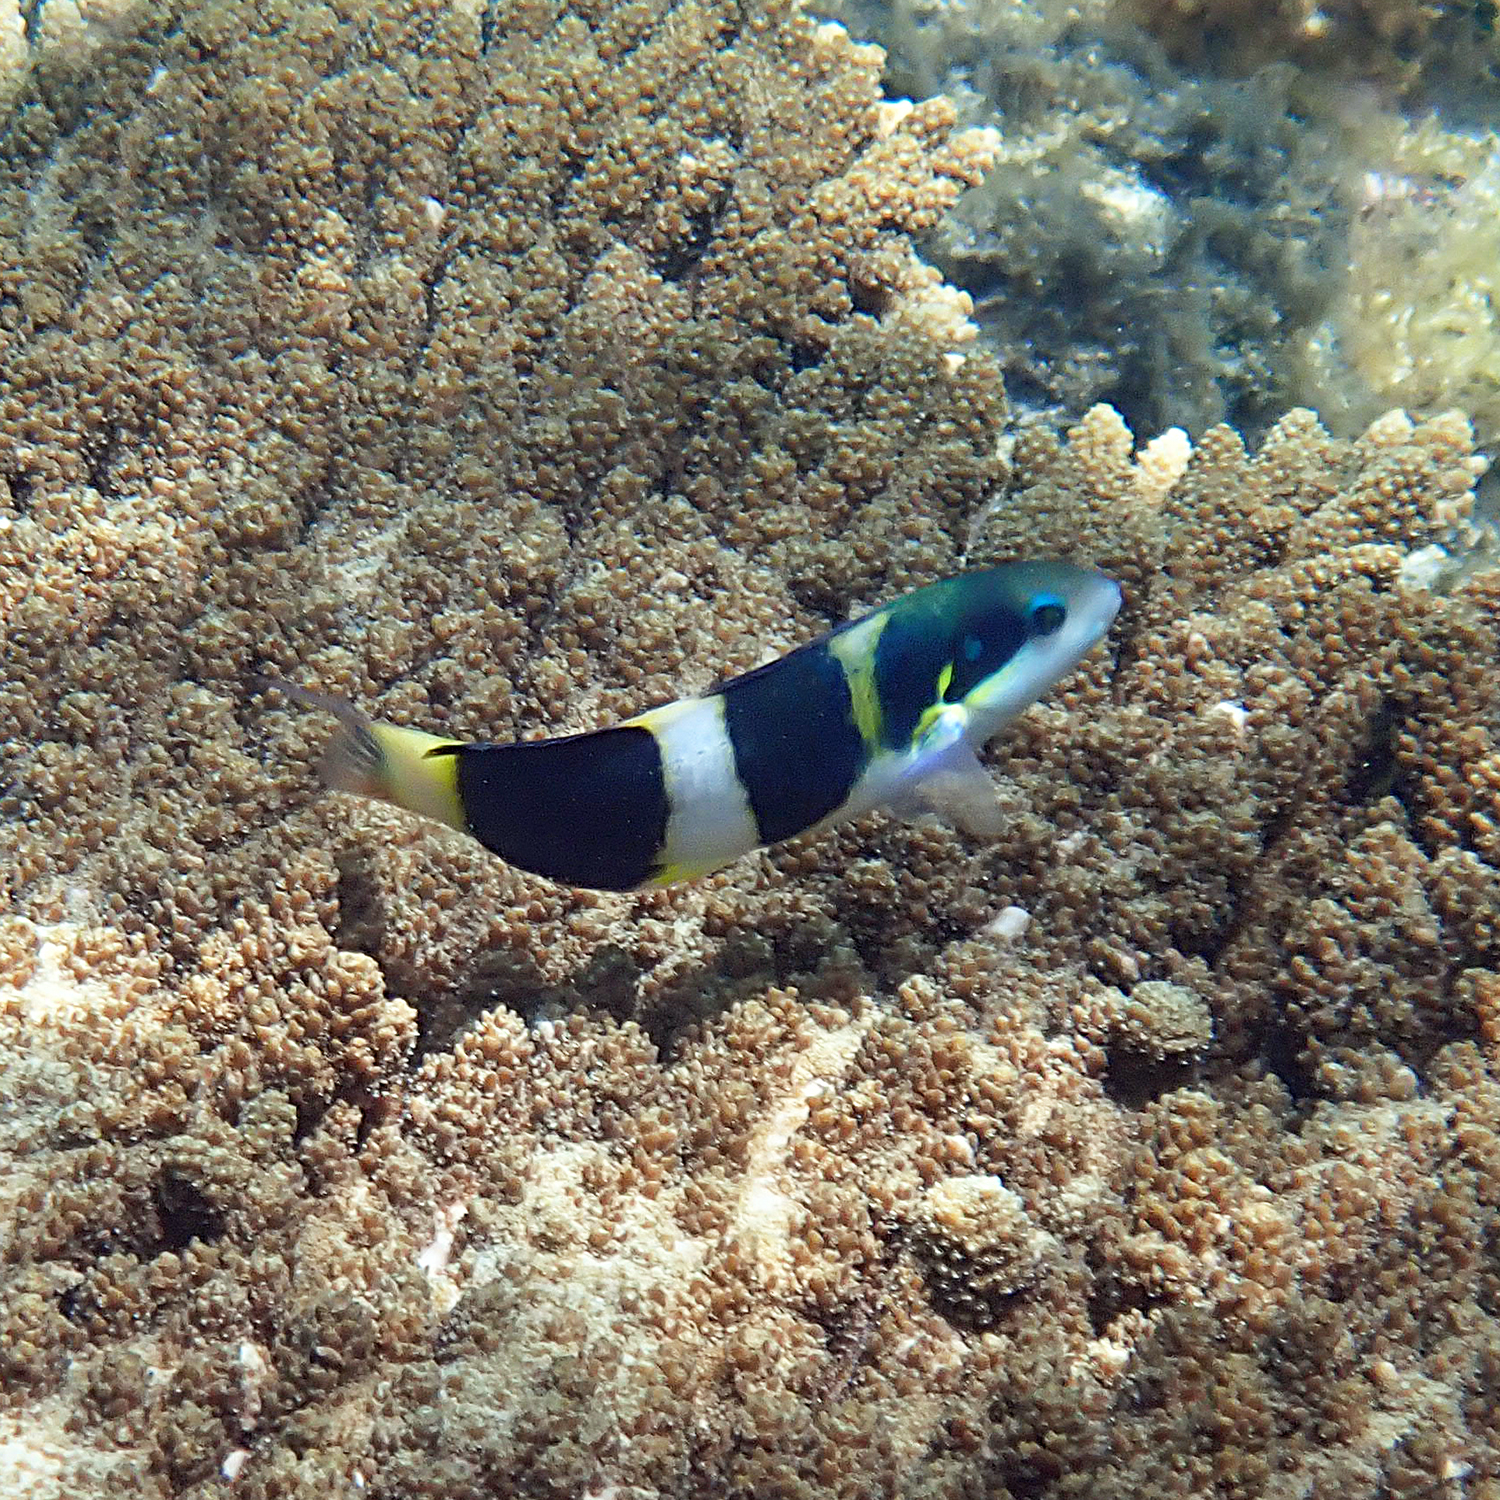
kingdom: Animalia
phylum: Chordata
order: Perciformes
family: Labridae
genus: Thalassoma
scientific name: Thalassoma nigrofasciatum
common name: Black-barred wrasse
